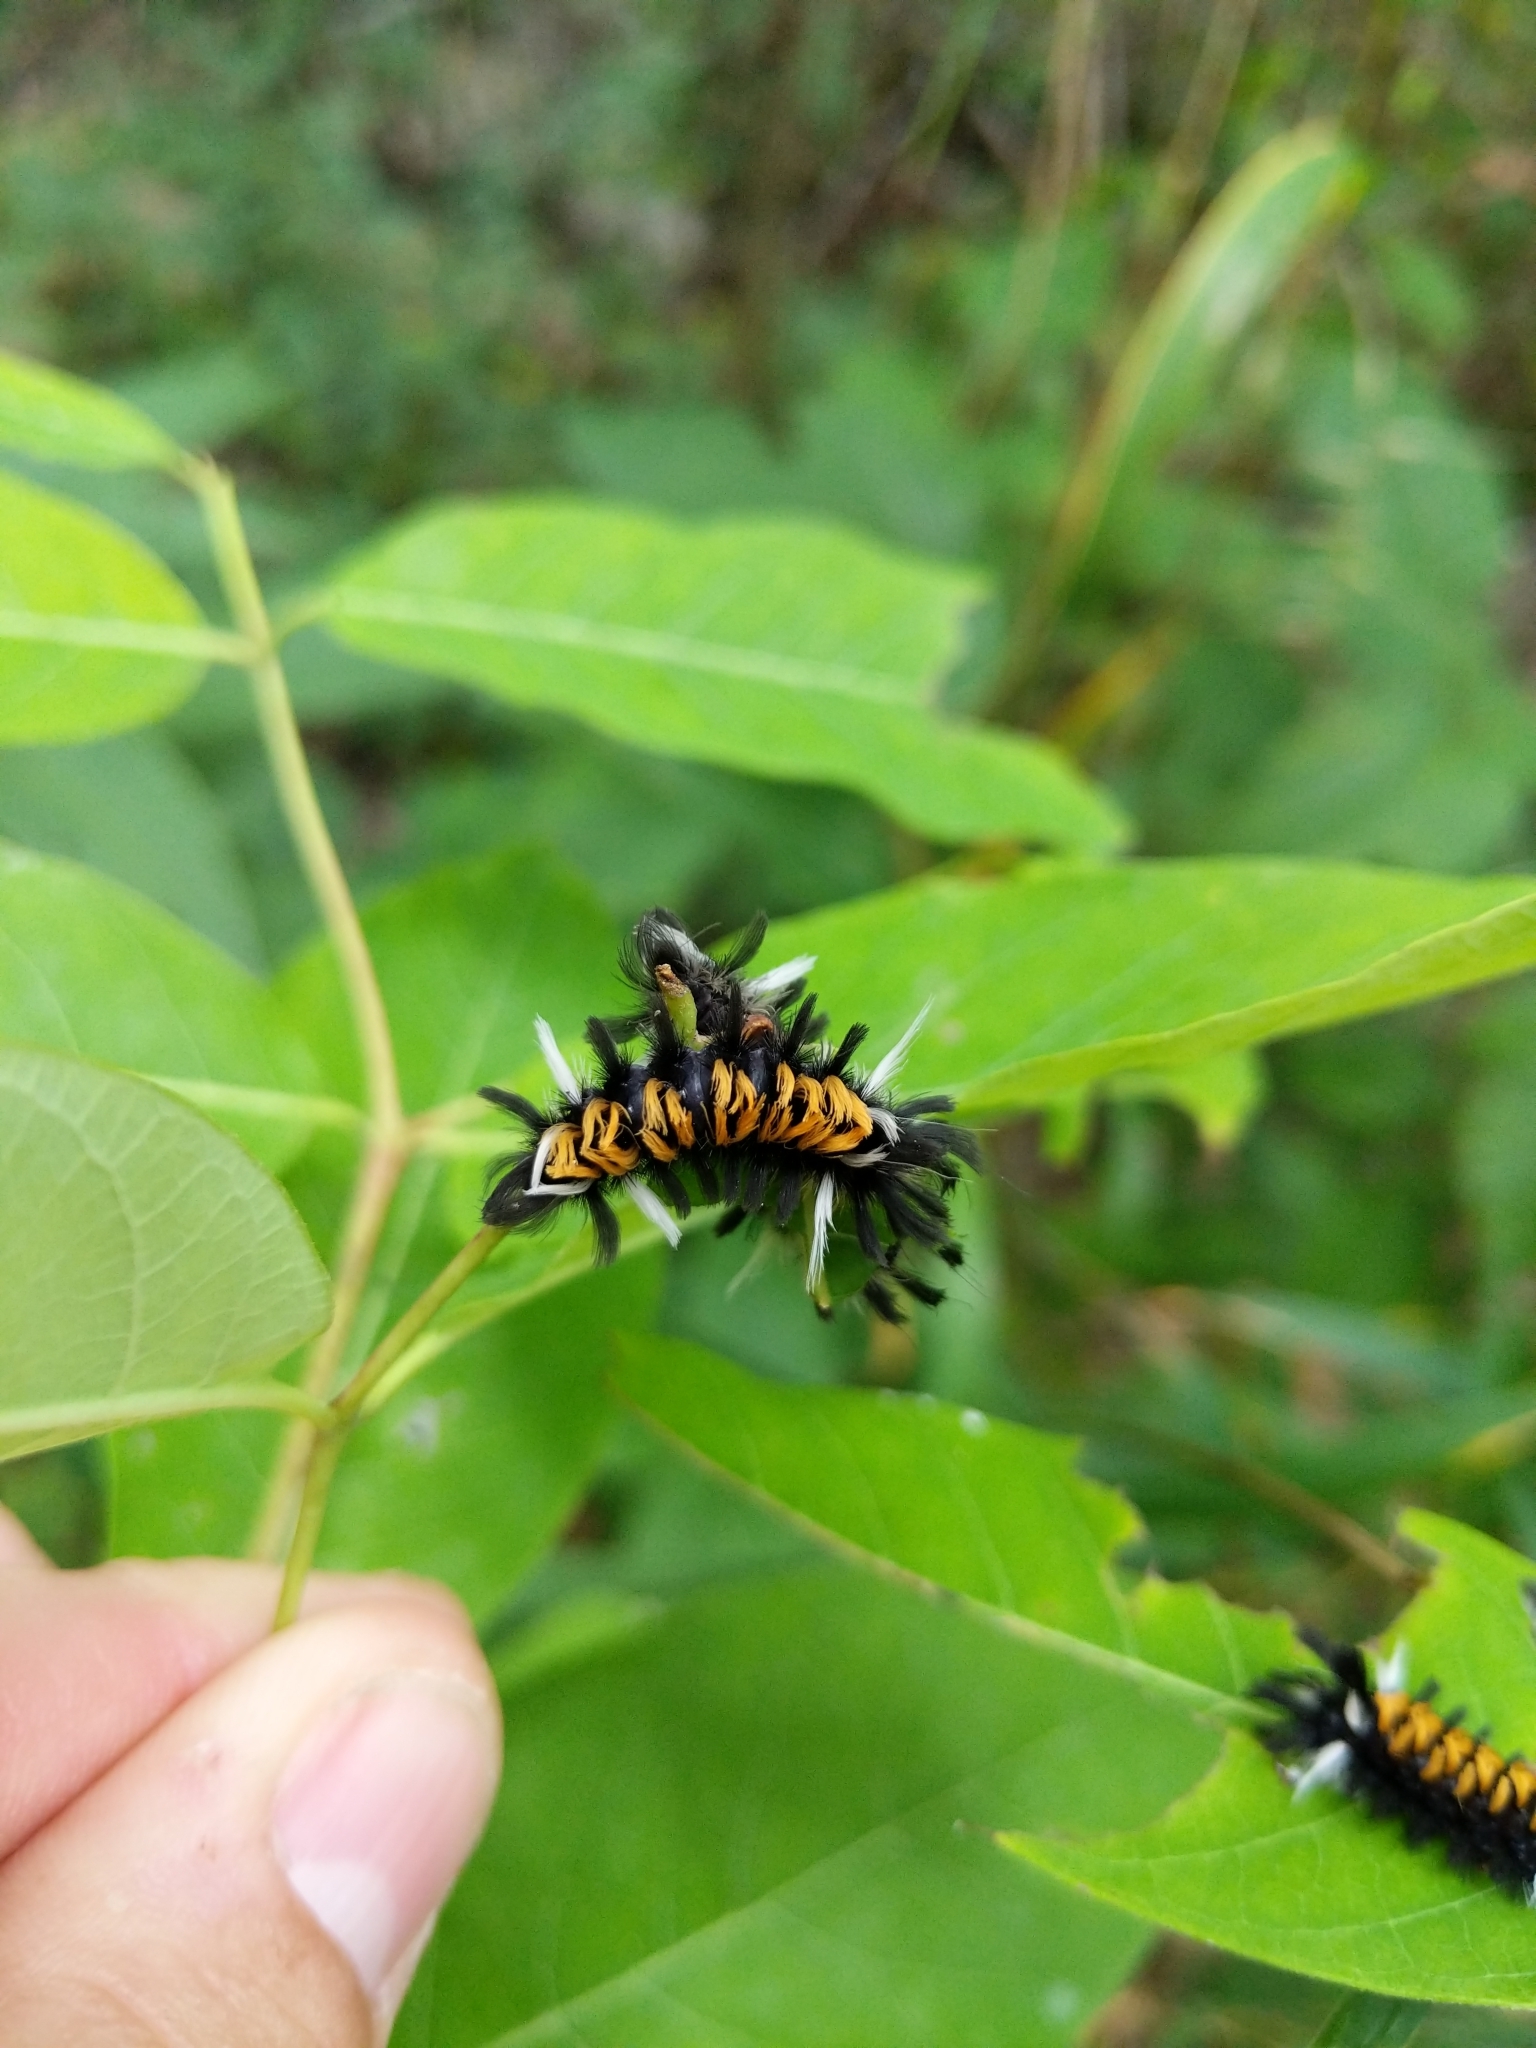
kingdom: Animalia
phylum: Arthropoda
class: Insecta
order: Lepidoptera
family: Erebidae
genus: Euchaetes
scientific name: Euchaetes egle
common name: Milkweed tussock moth
